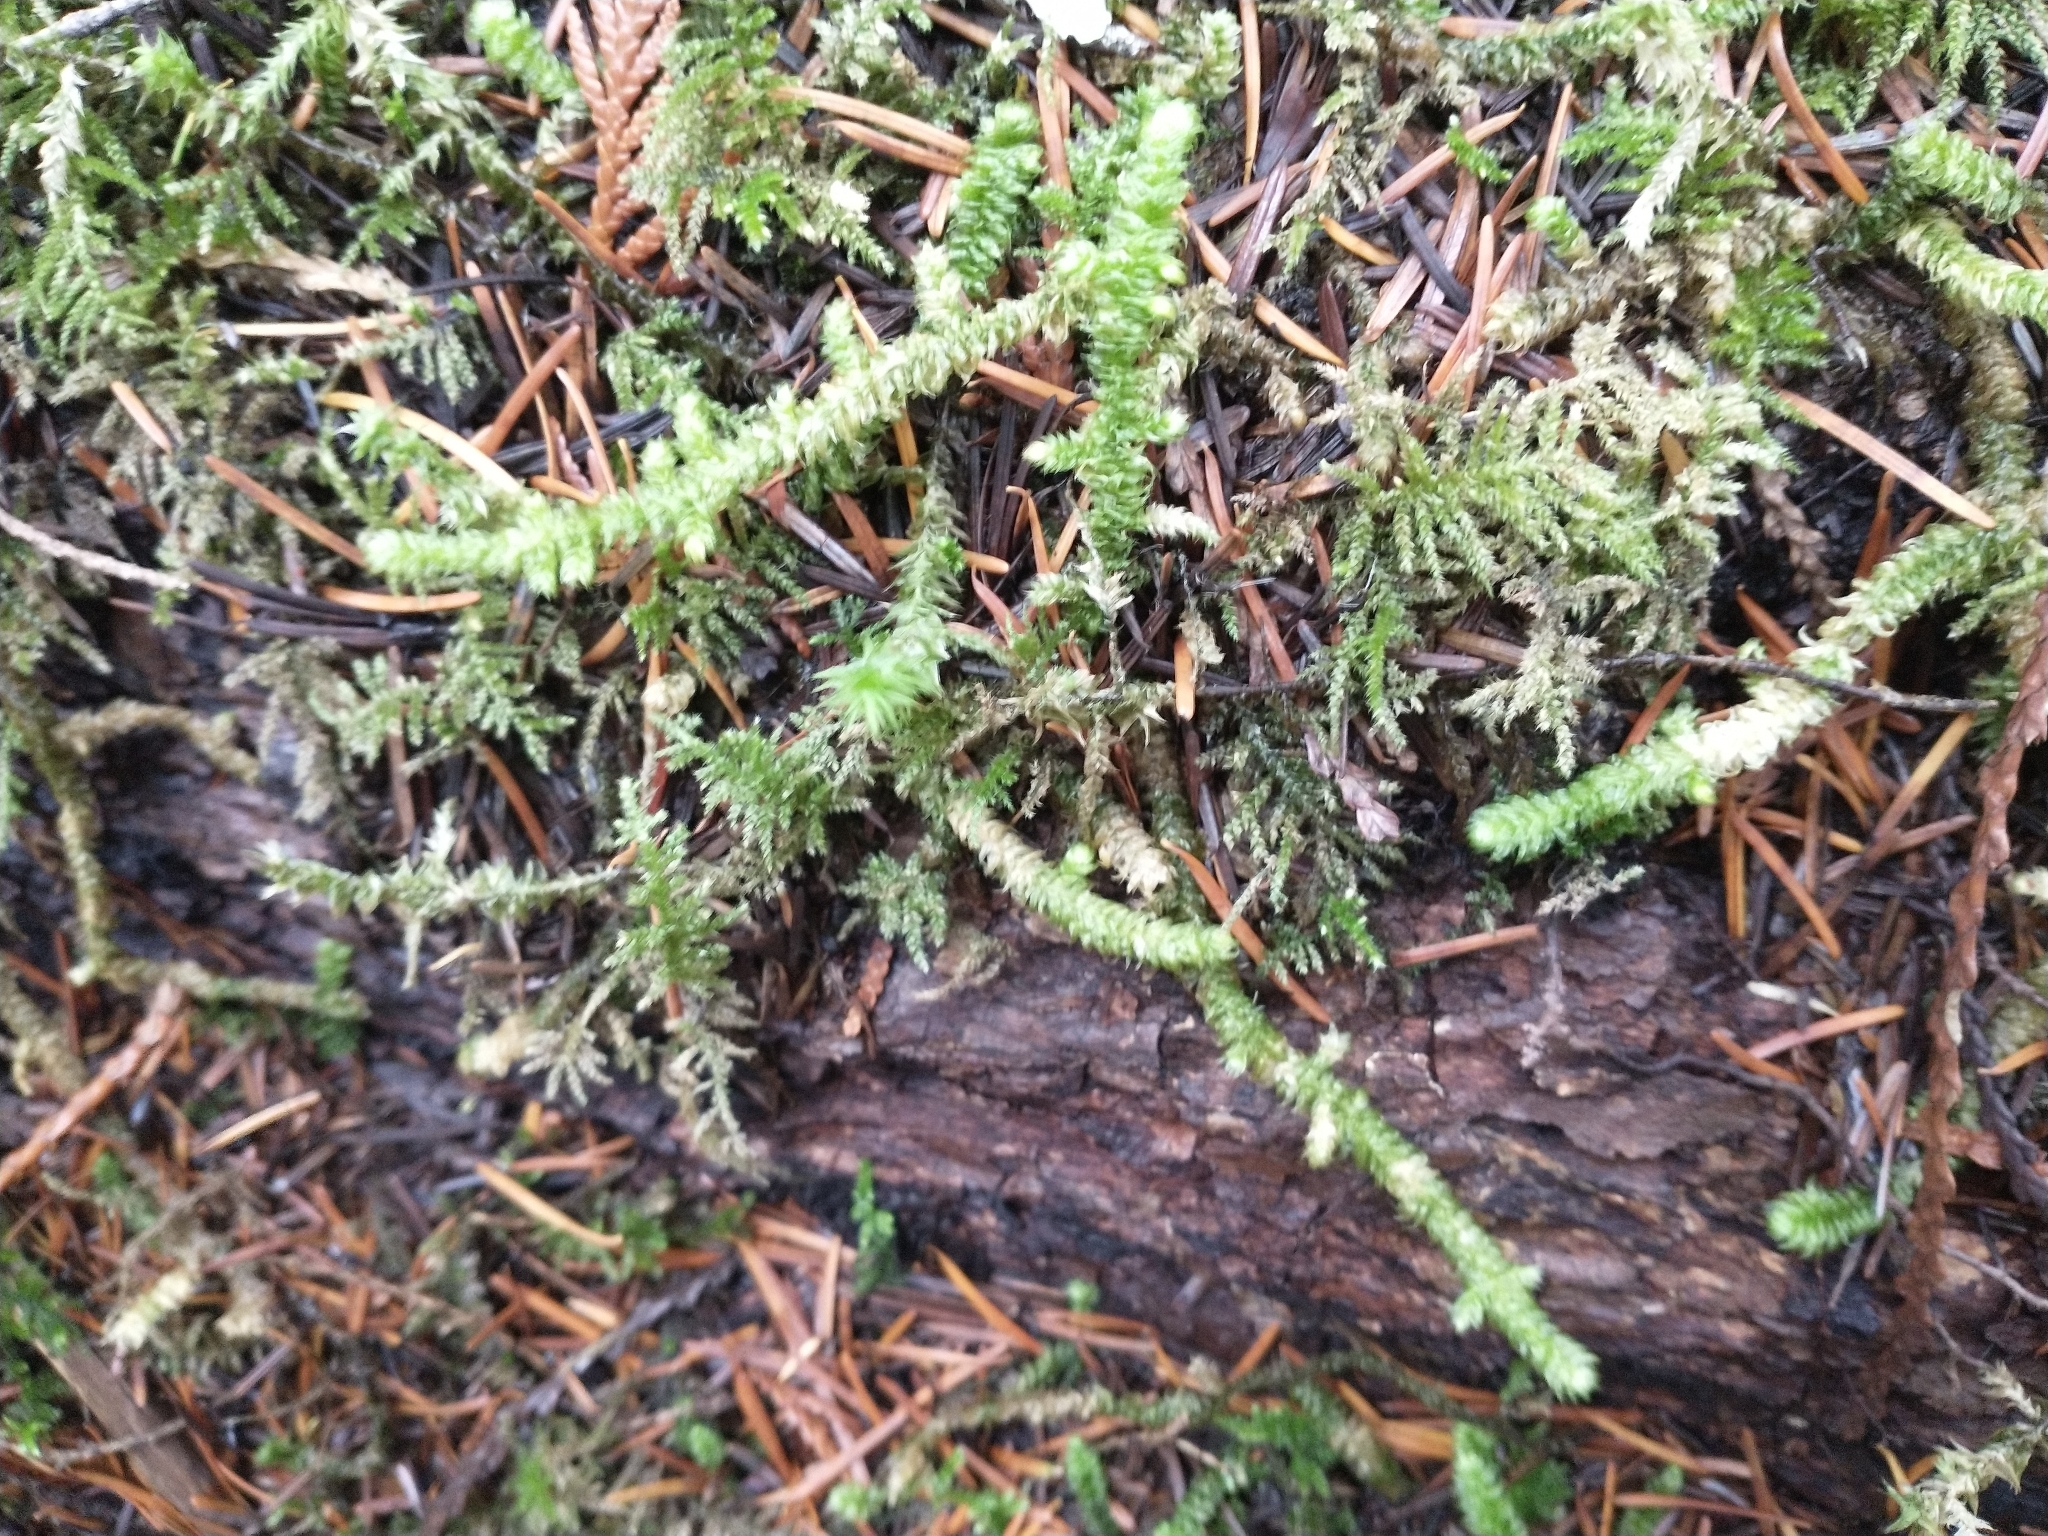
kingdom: Plantae
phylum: Bryophyta
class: Bryopsida
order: Hypnales
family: Hylocomiaceae
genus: Rhytidiopsis
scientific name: Rhytidiopsis robusta
